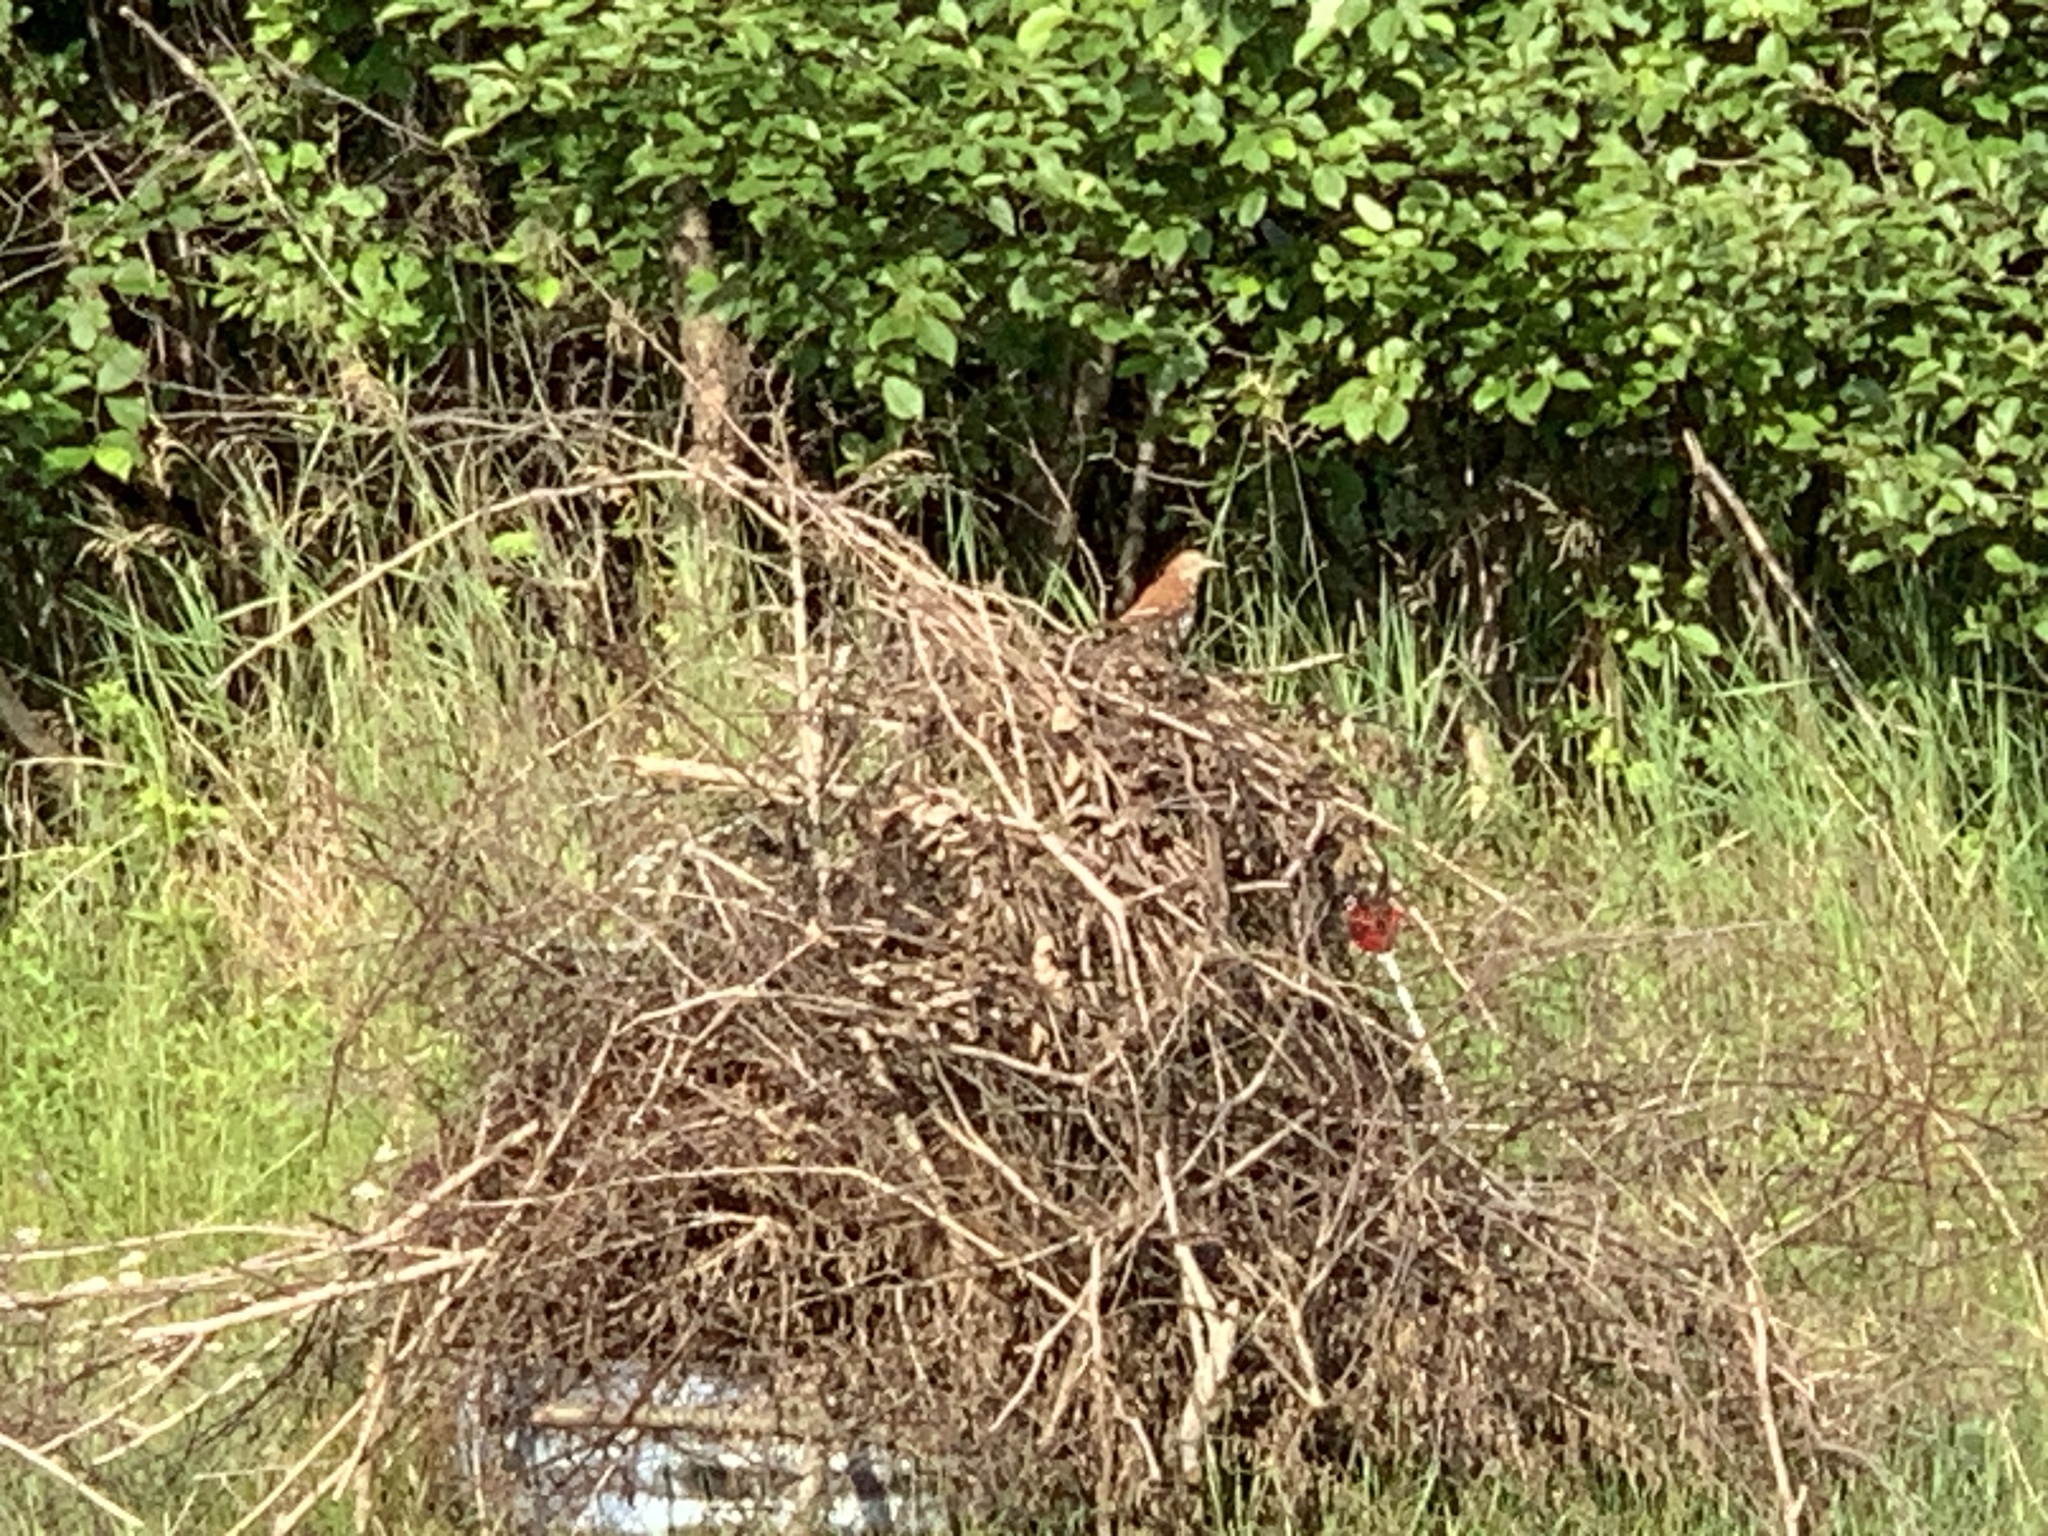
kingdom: Animalia
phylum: Chordata
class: Aves
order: Passeriformes
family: Mimidae
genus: Toxostoma
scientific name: Toxostoma rufum
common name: Brown thrasher
